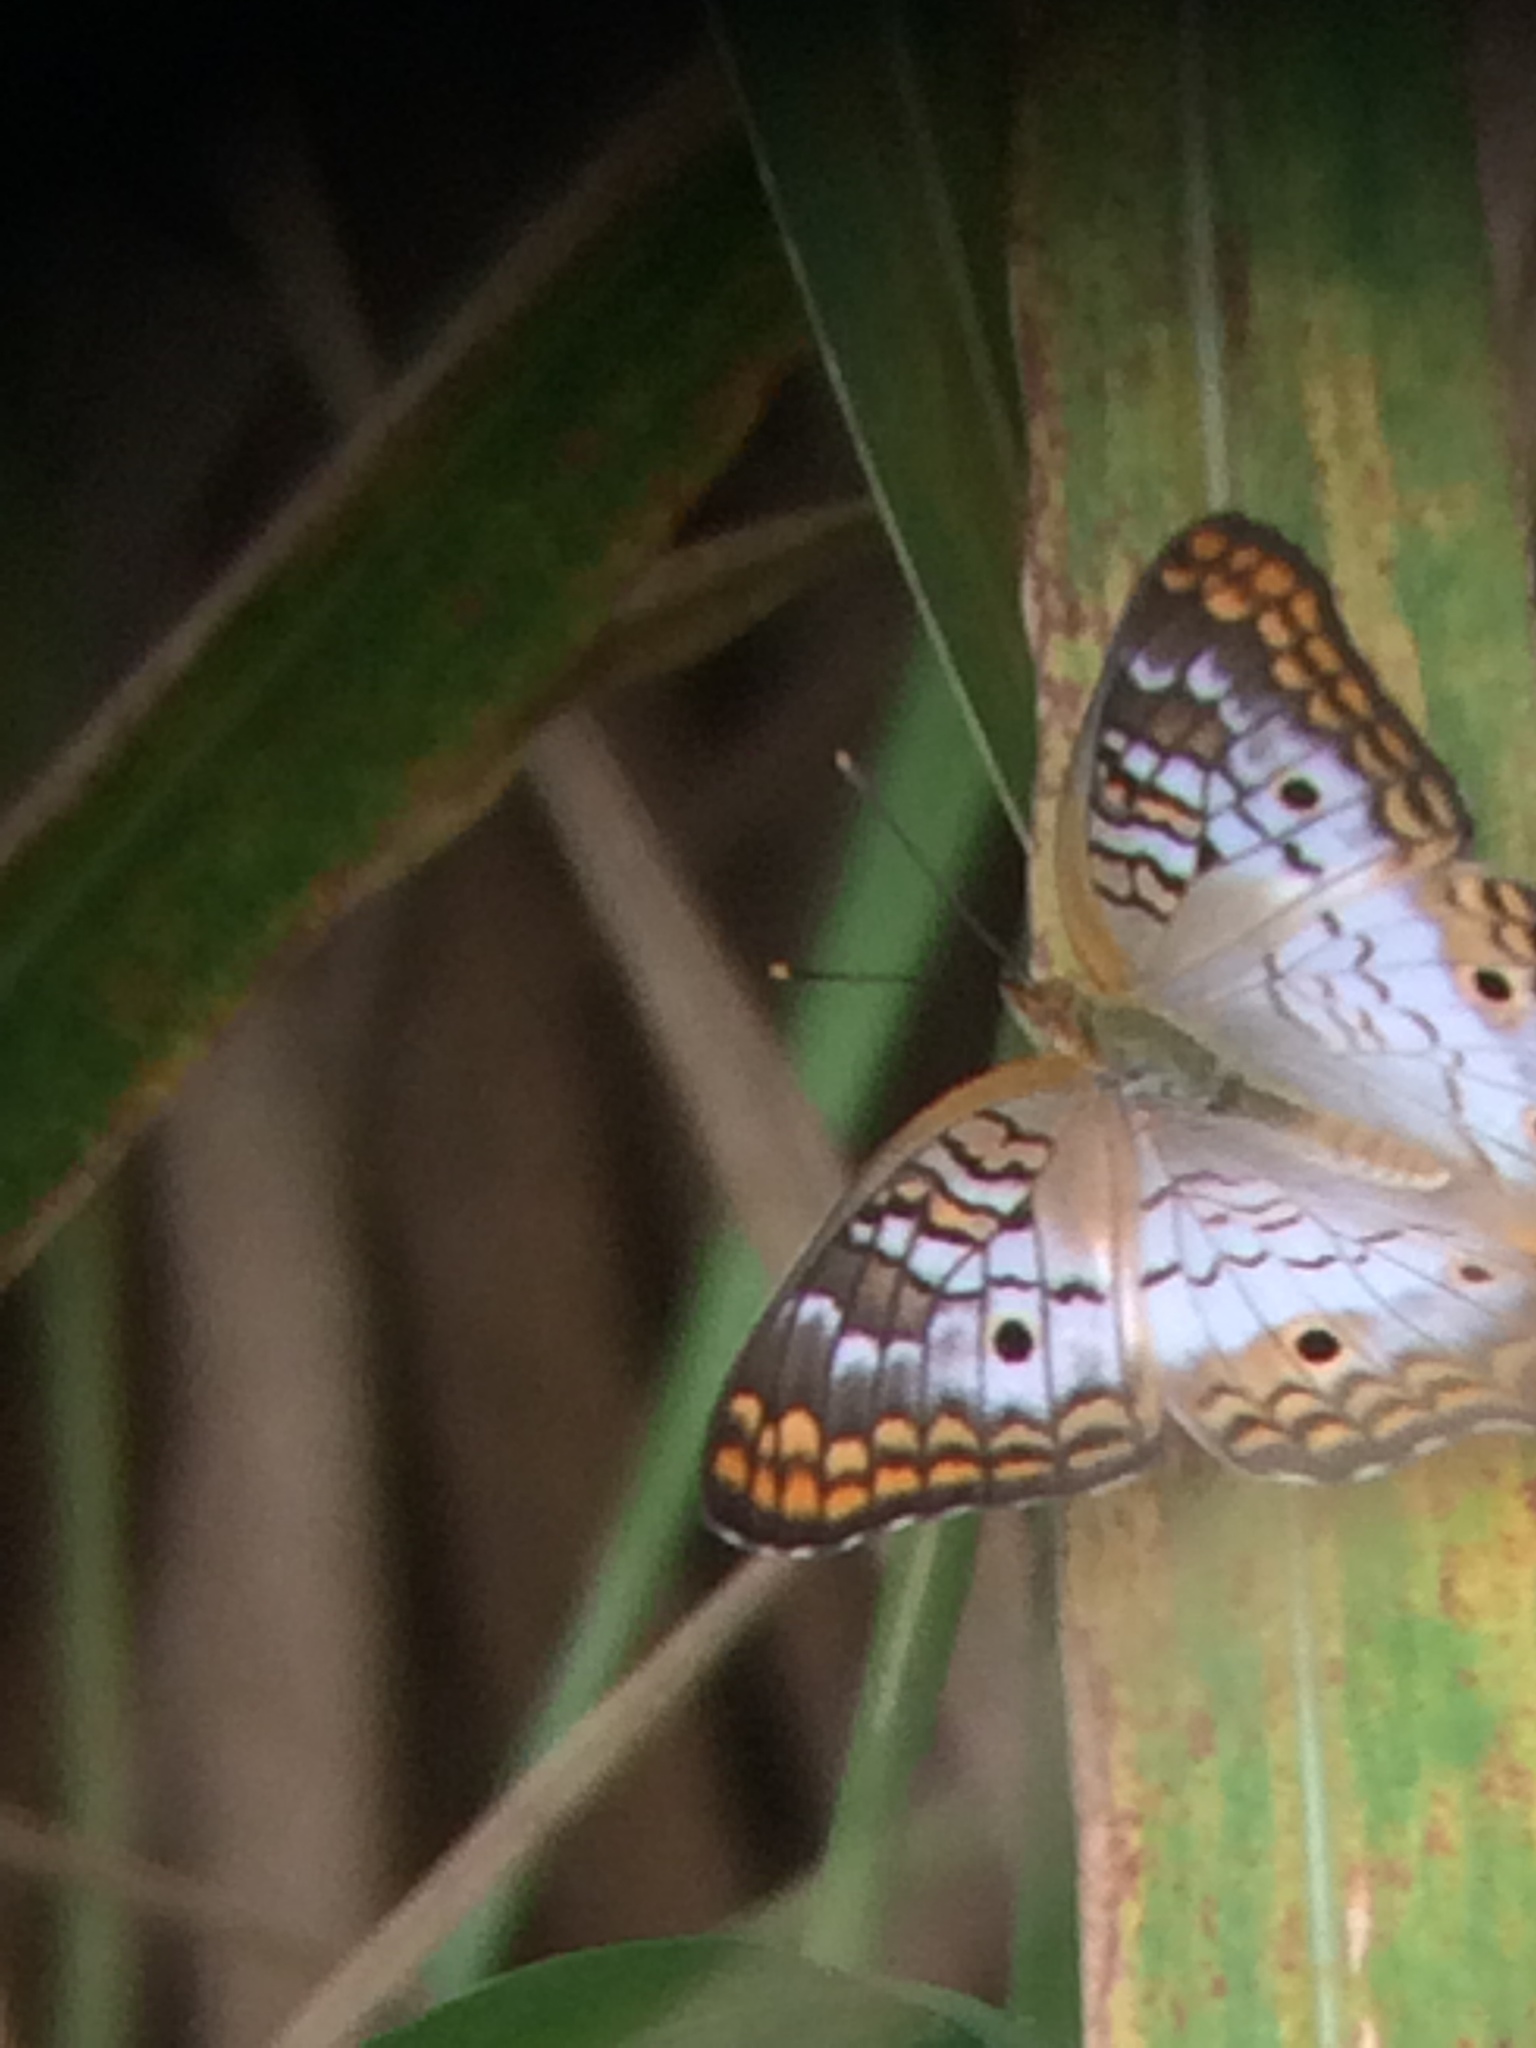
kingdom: Animalia
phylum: Arthropoda
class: Insecta
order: Lepidoptera
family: Nymphalidae
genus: Anartia
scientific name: Anartia jatrophae
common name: White peacock
